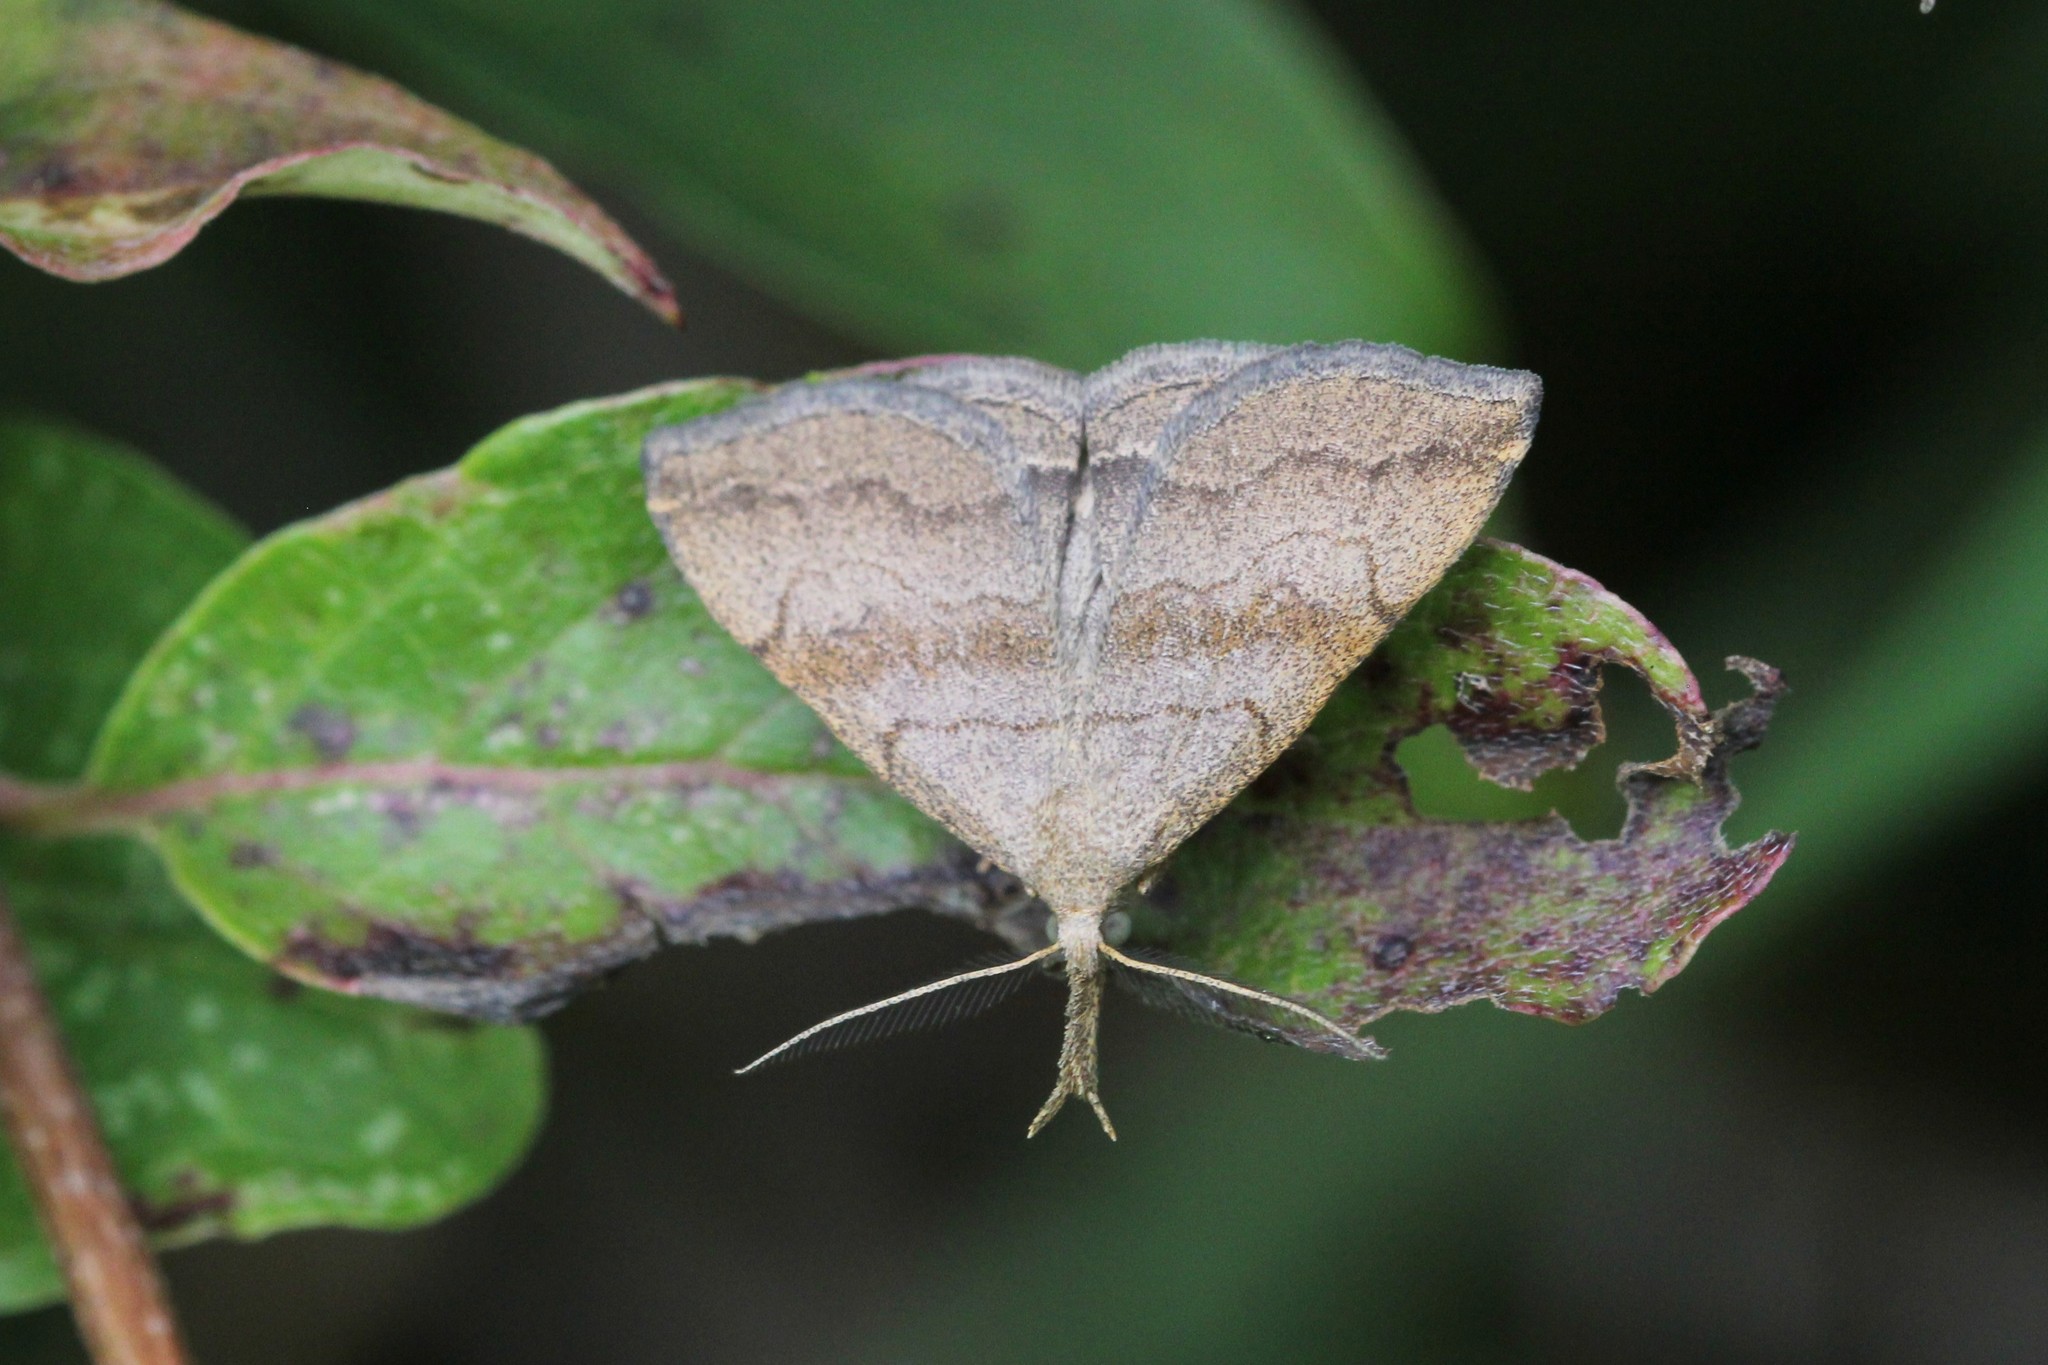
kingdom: Animalia
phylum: Arthropoda
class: Insecta
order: Lepidoptera
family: Erebidae
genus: Phalaenostola
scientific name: Phalaenostola metonalis
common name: Pale phalaenostola moth
